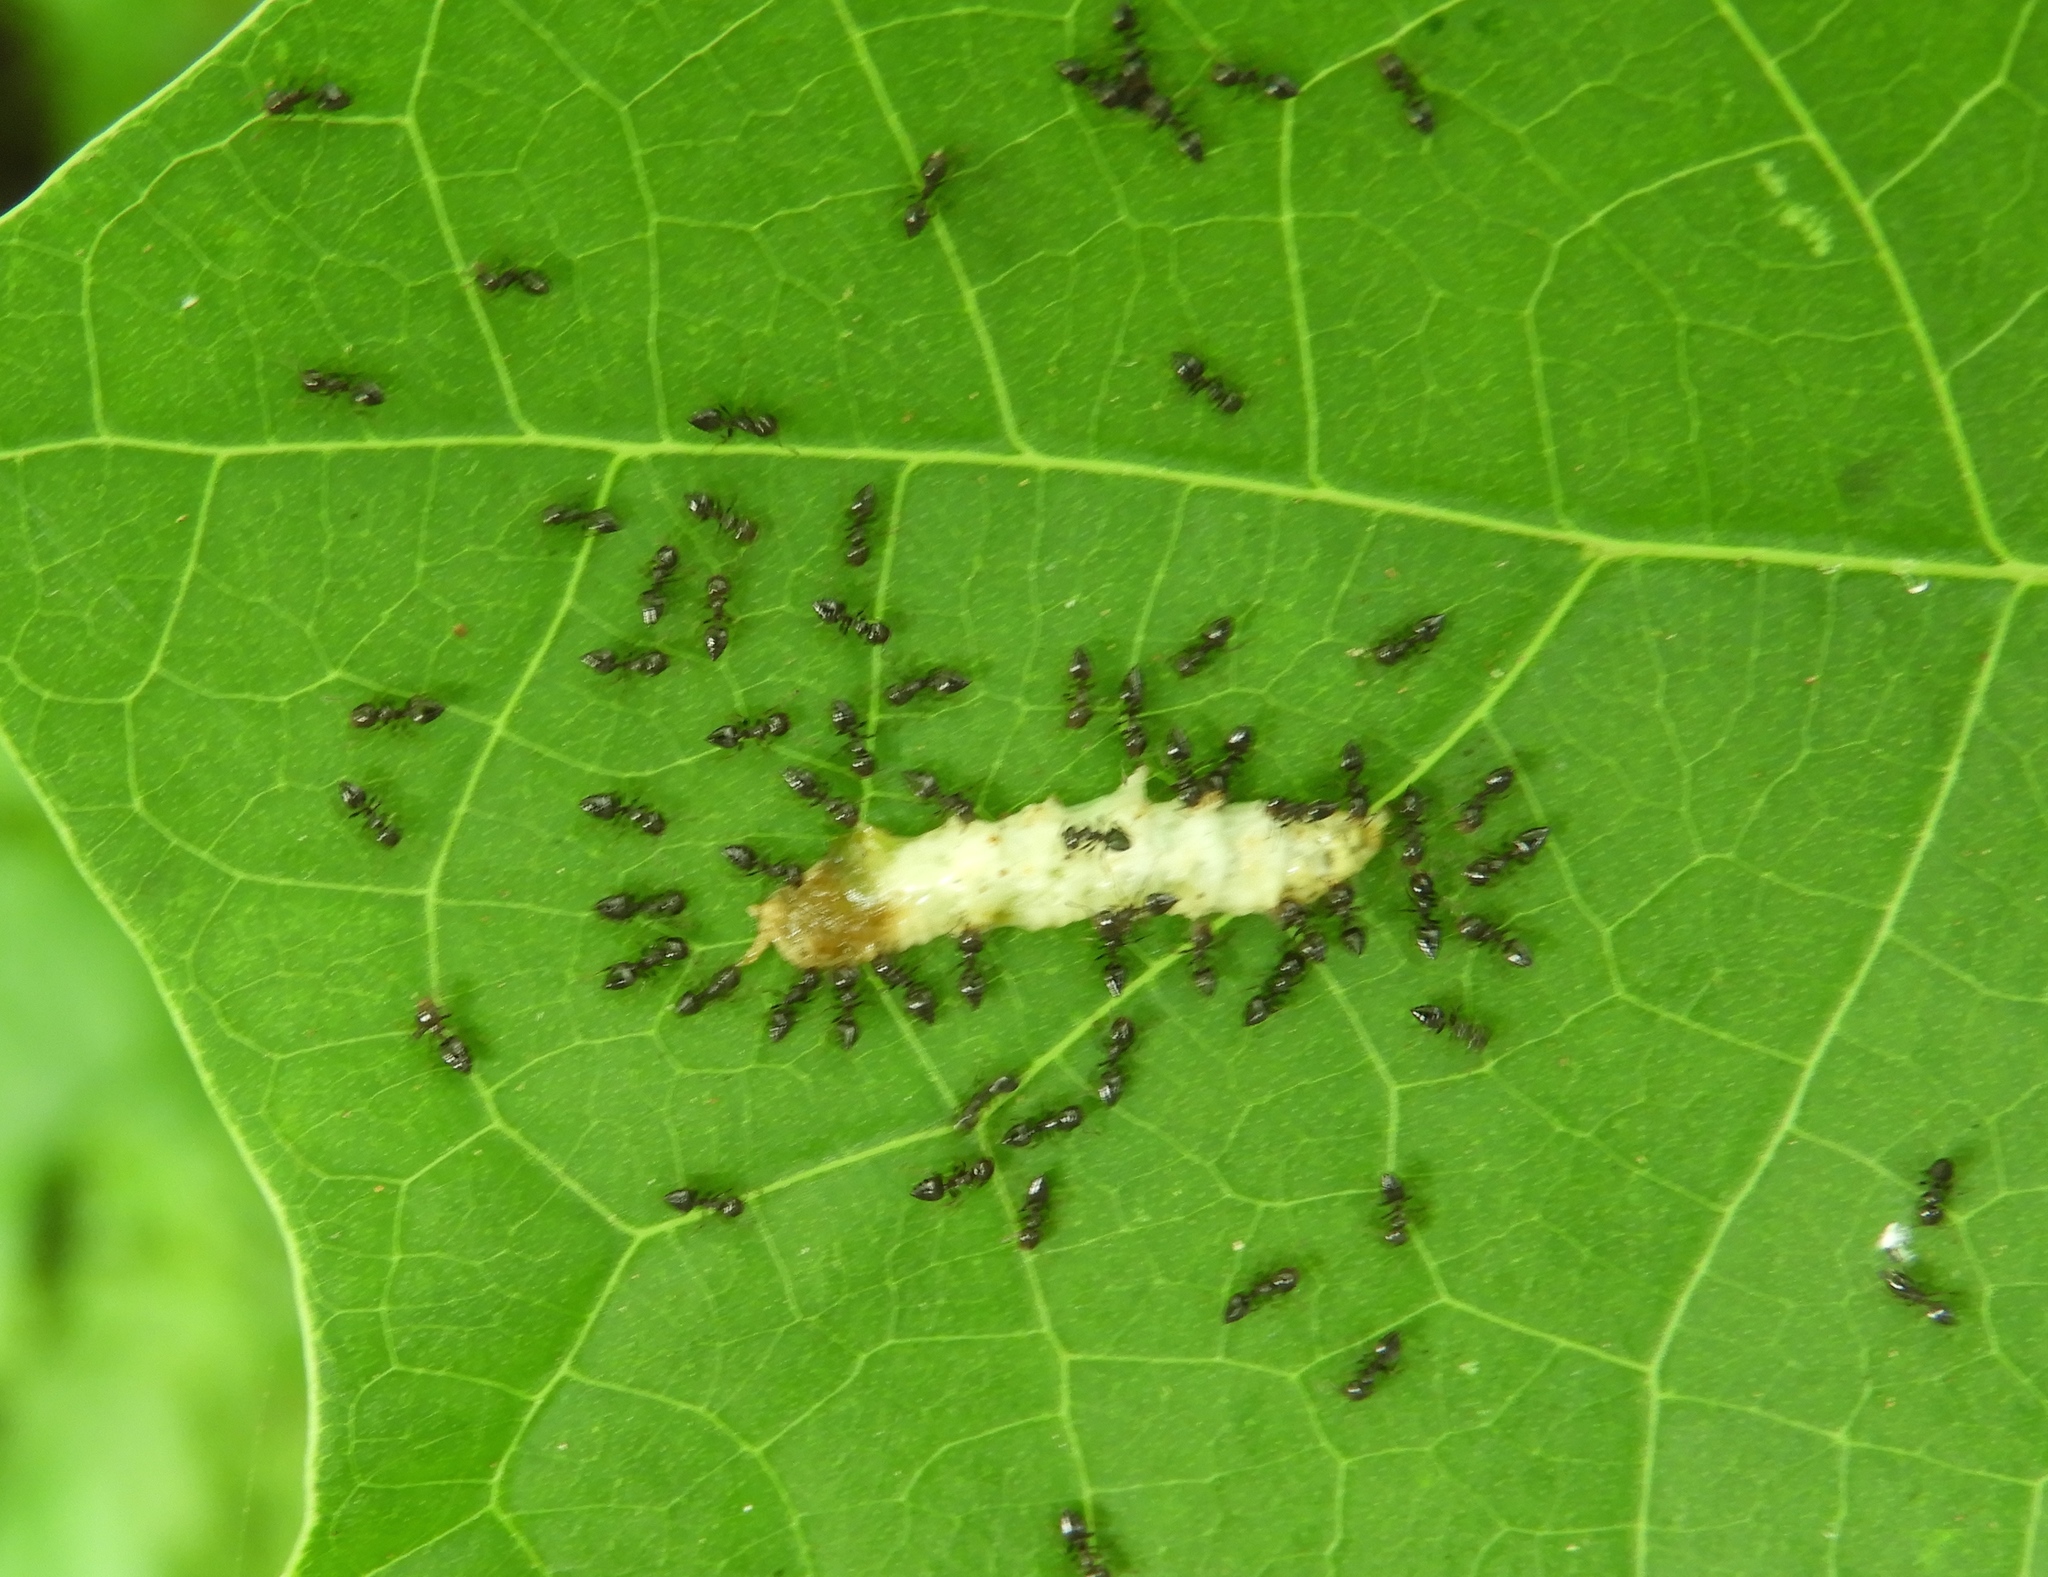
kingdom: Animalia
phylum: Arthropoda
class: Insecta
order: Hymenoptera
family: Formicidae
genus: Crematogaster
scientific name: Crematogaster
